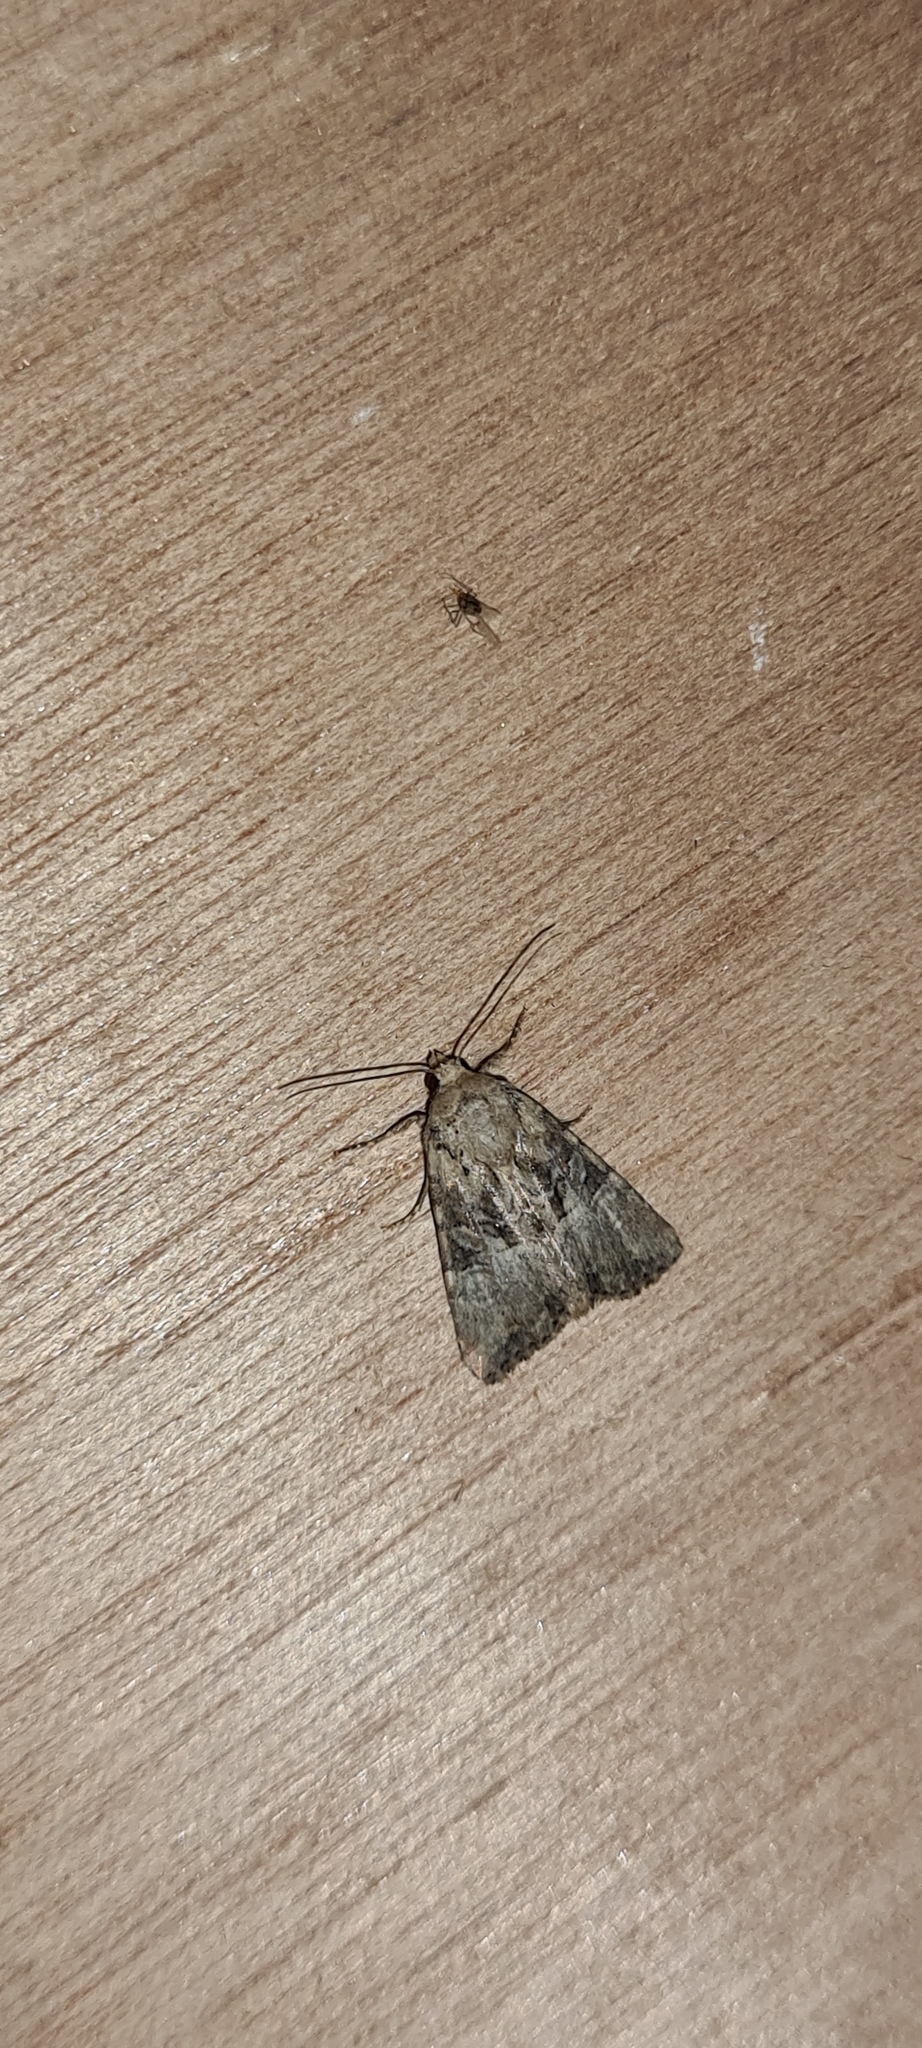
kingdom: Animalia
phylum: Arthropoda
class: Insecta
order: Lepidoptera
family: Noctuidae
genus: Mesoligia
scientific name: Mesoligia furuncula
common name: Cloaked minor
